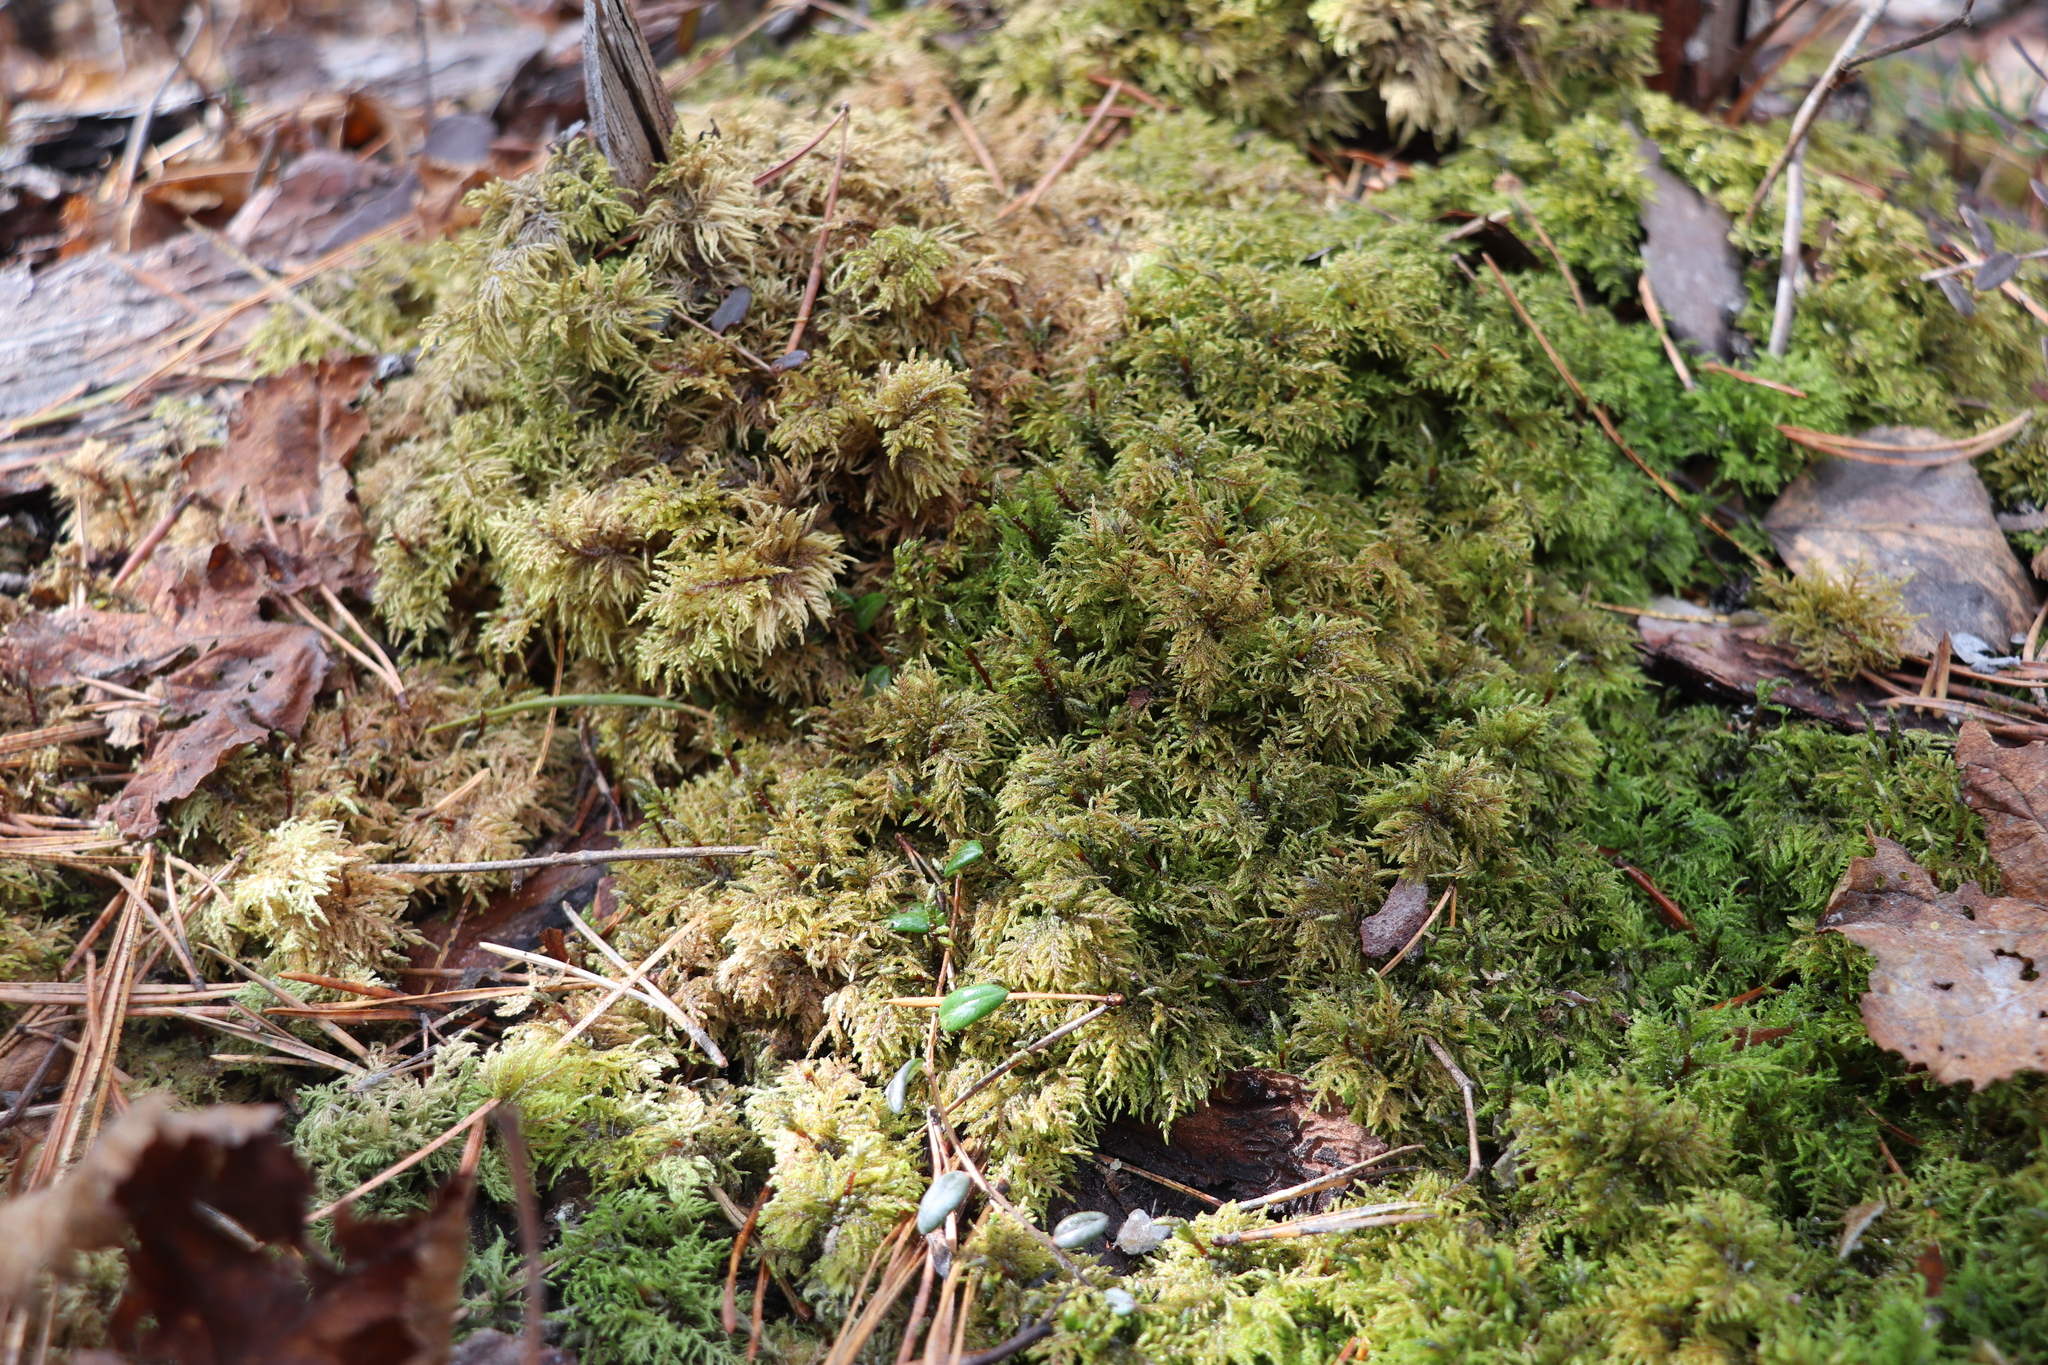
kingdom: Plantae
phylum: Bryophyta
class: Bryopsida
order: Hypnales
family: Hylocomiaceae
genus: Hylocomium
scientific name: Hylocomium splendens
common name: Stairstep moss
